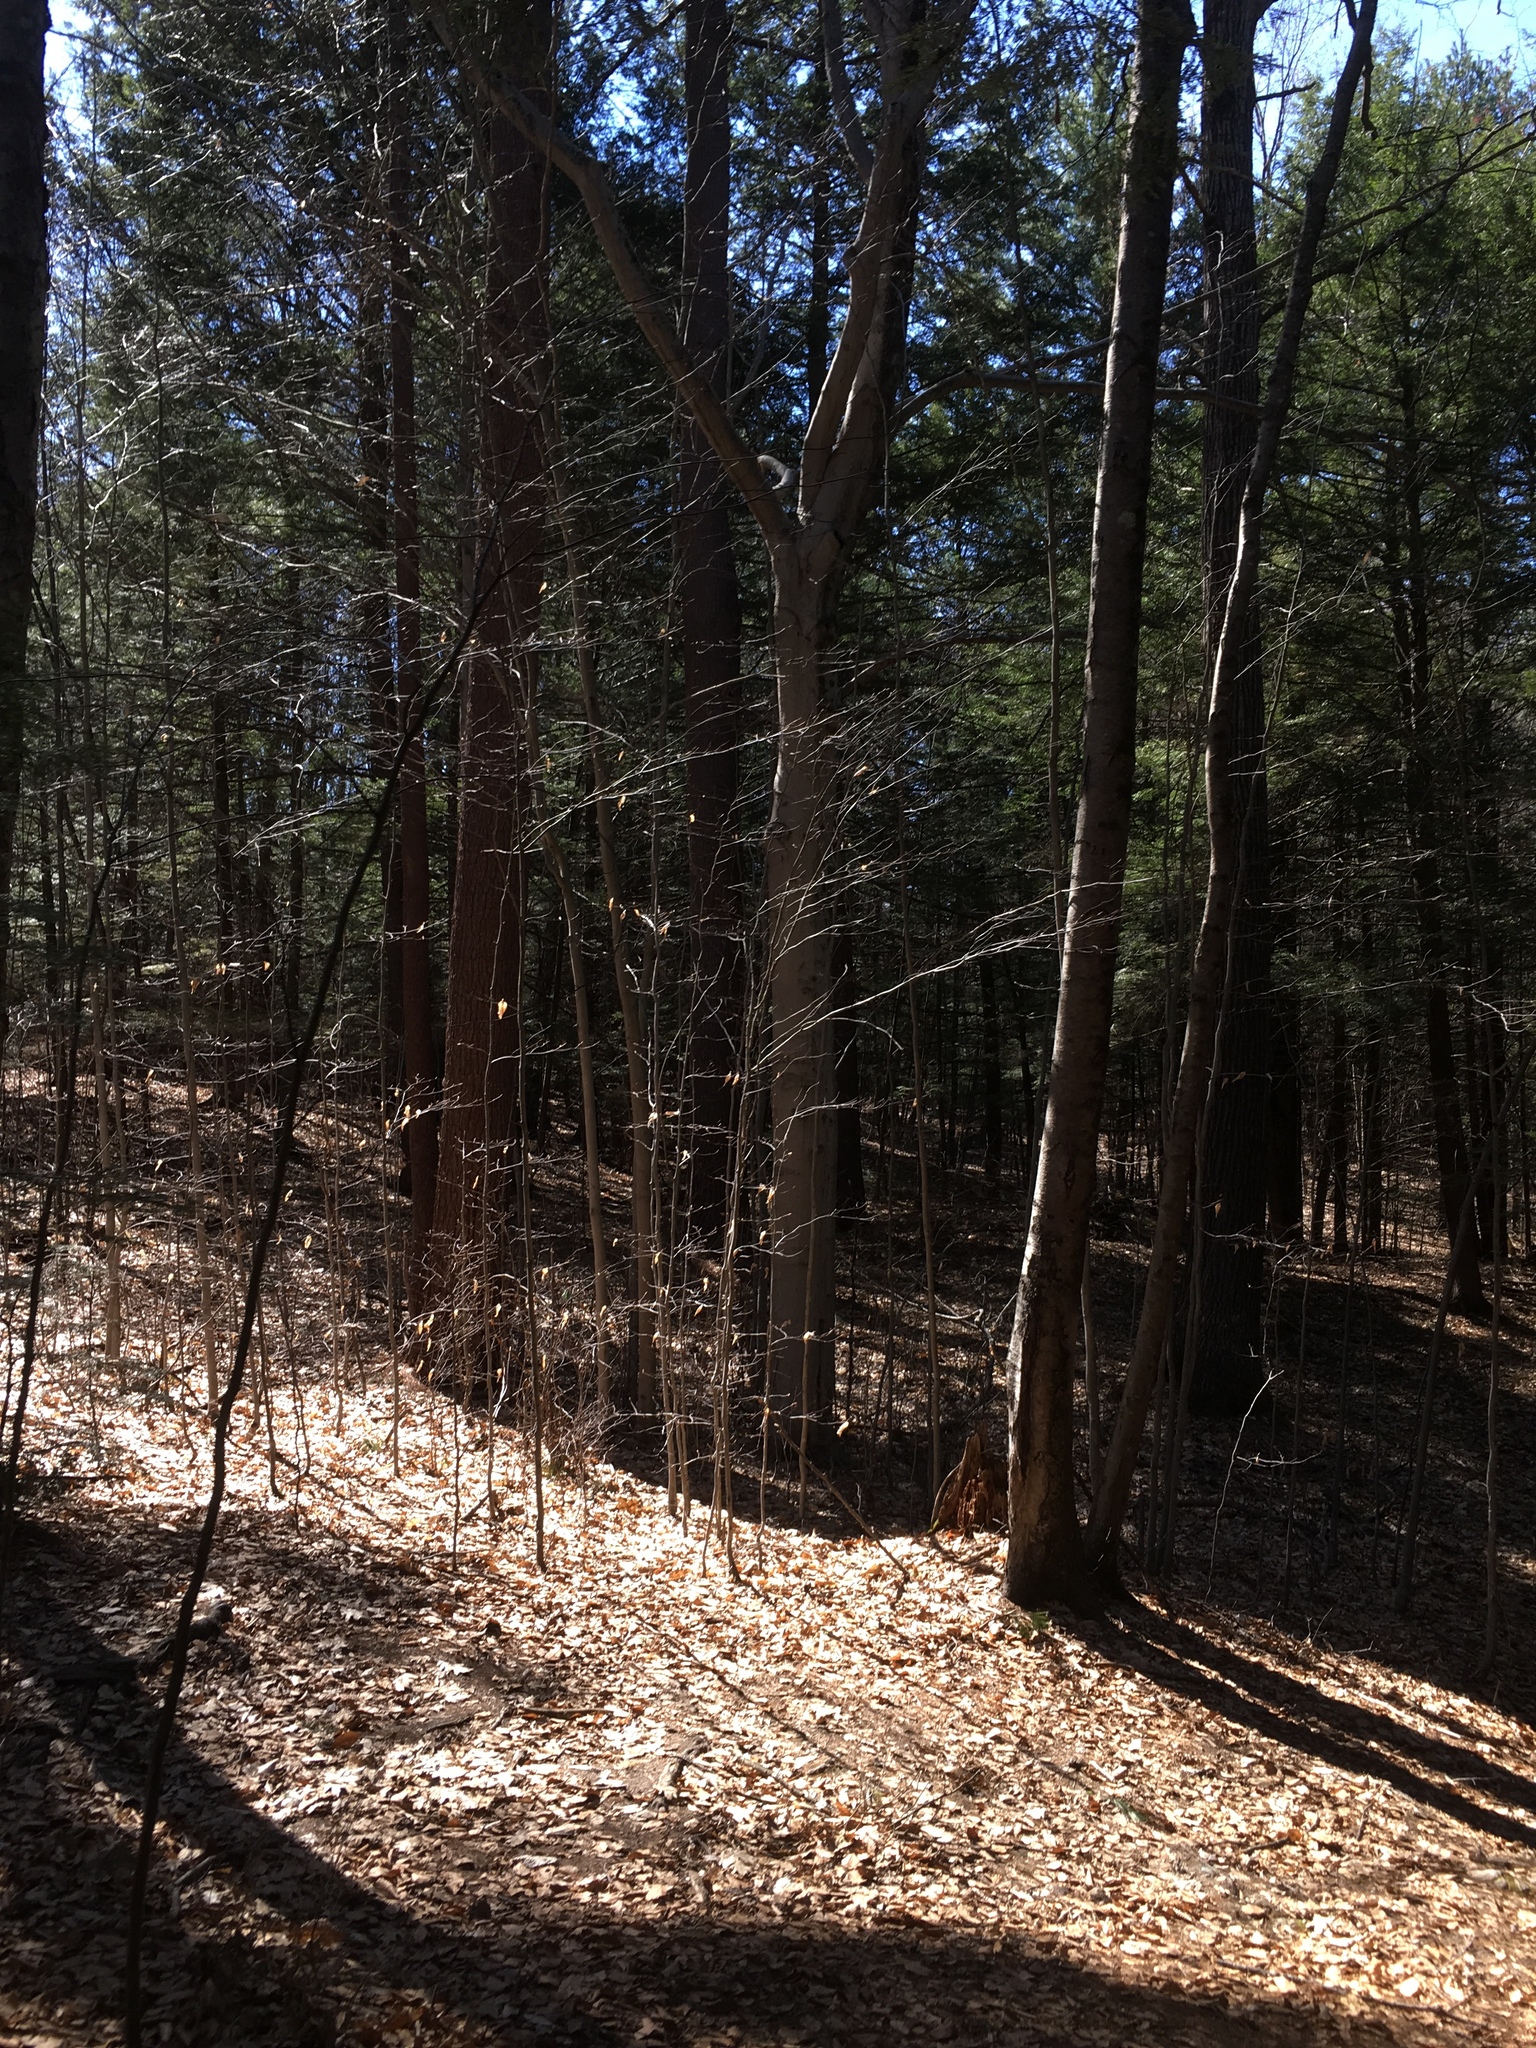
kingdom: Plantae
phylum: Tracheophyta
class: Magnoliopsida
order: Fagales
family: Fagaceae
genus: Fagus
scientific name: Fagus grandifolia
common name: American beech
